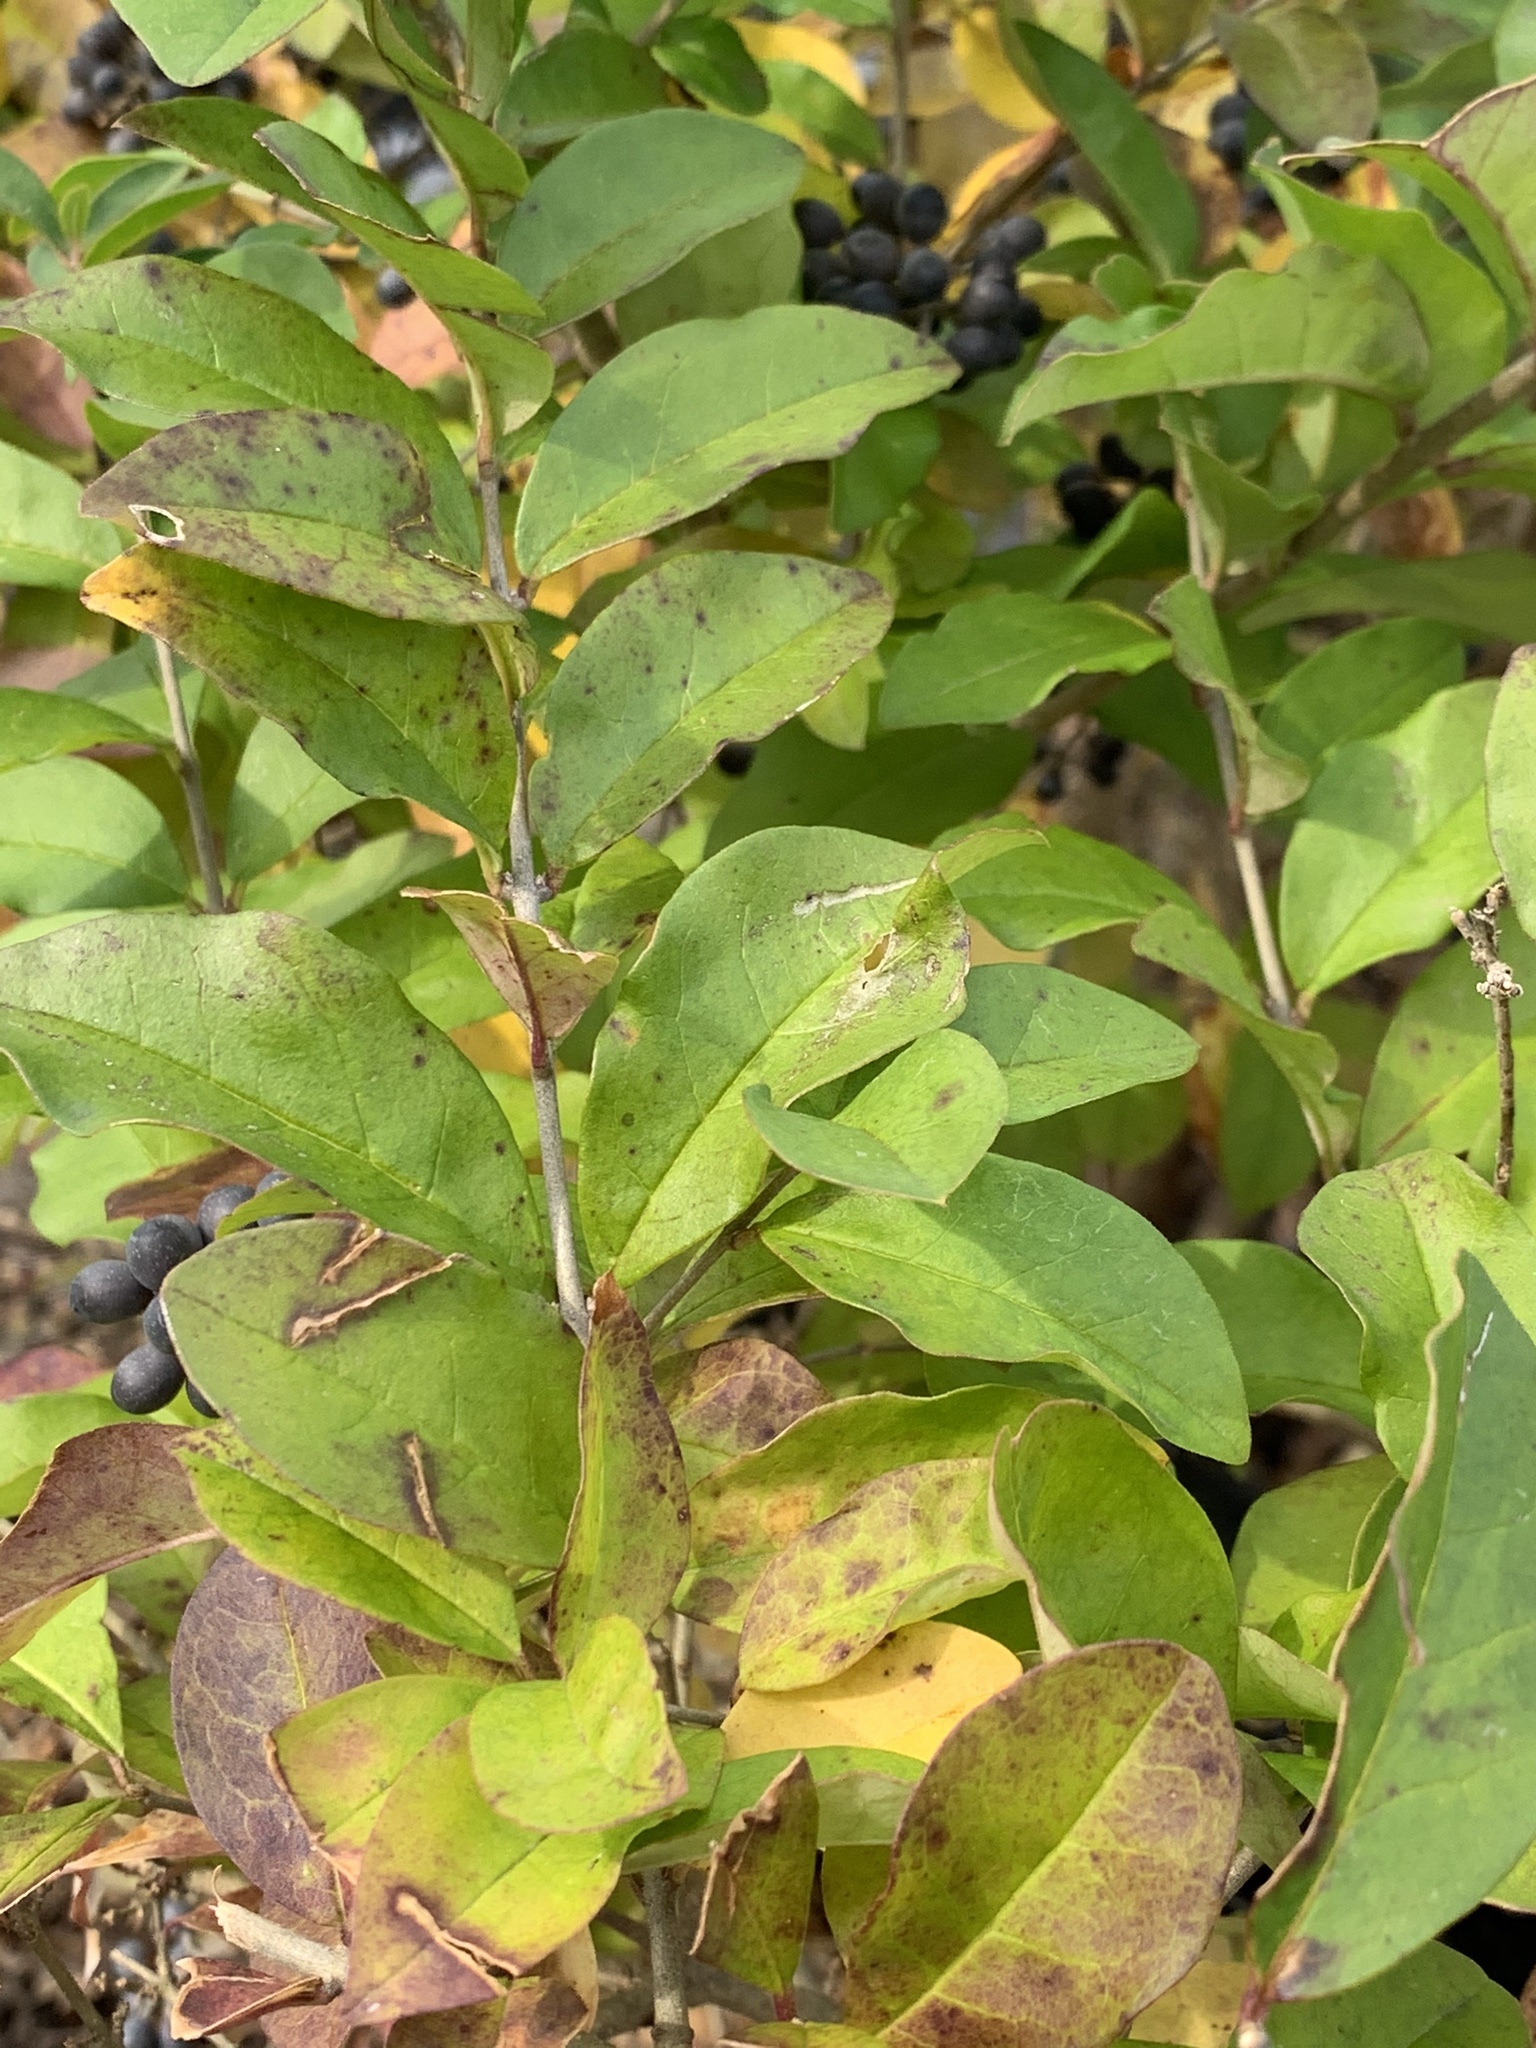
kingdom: Plantae
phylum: Tracheophyta
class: Magnoliopsida
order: Lamiales
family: Oleaceae
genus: Ligustrum
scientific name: Ligustrum obtusifolium
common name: Border privet
